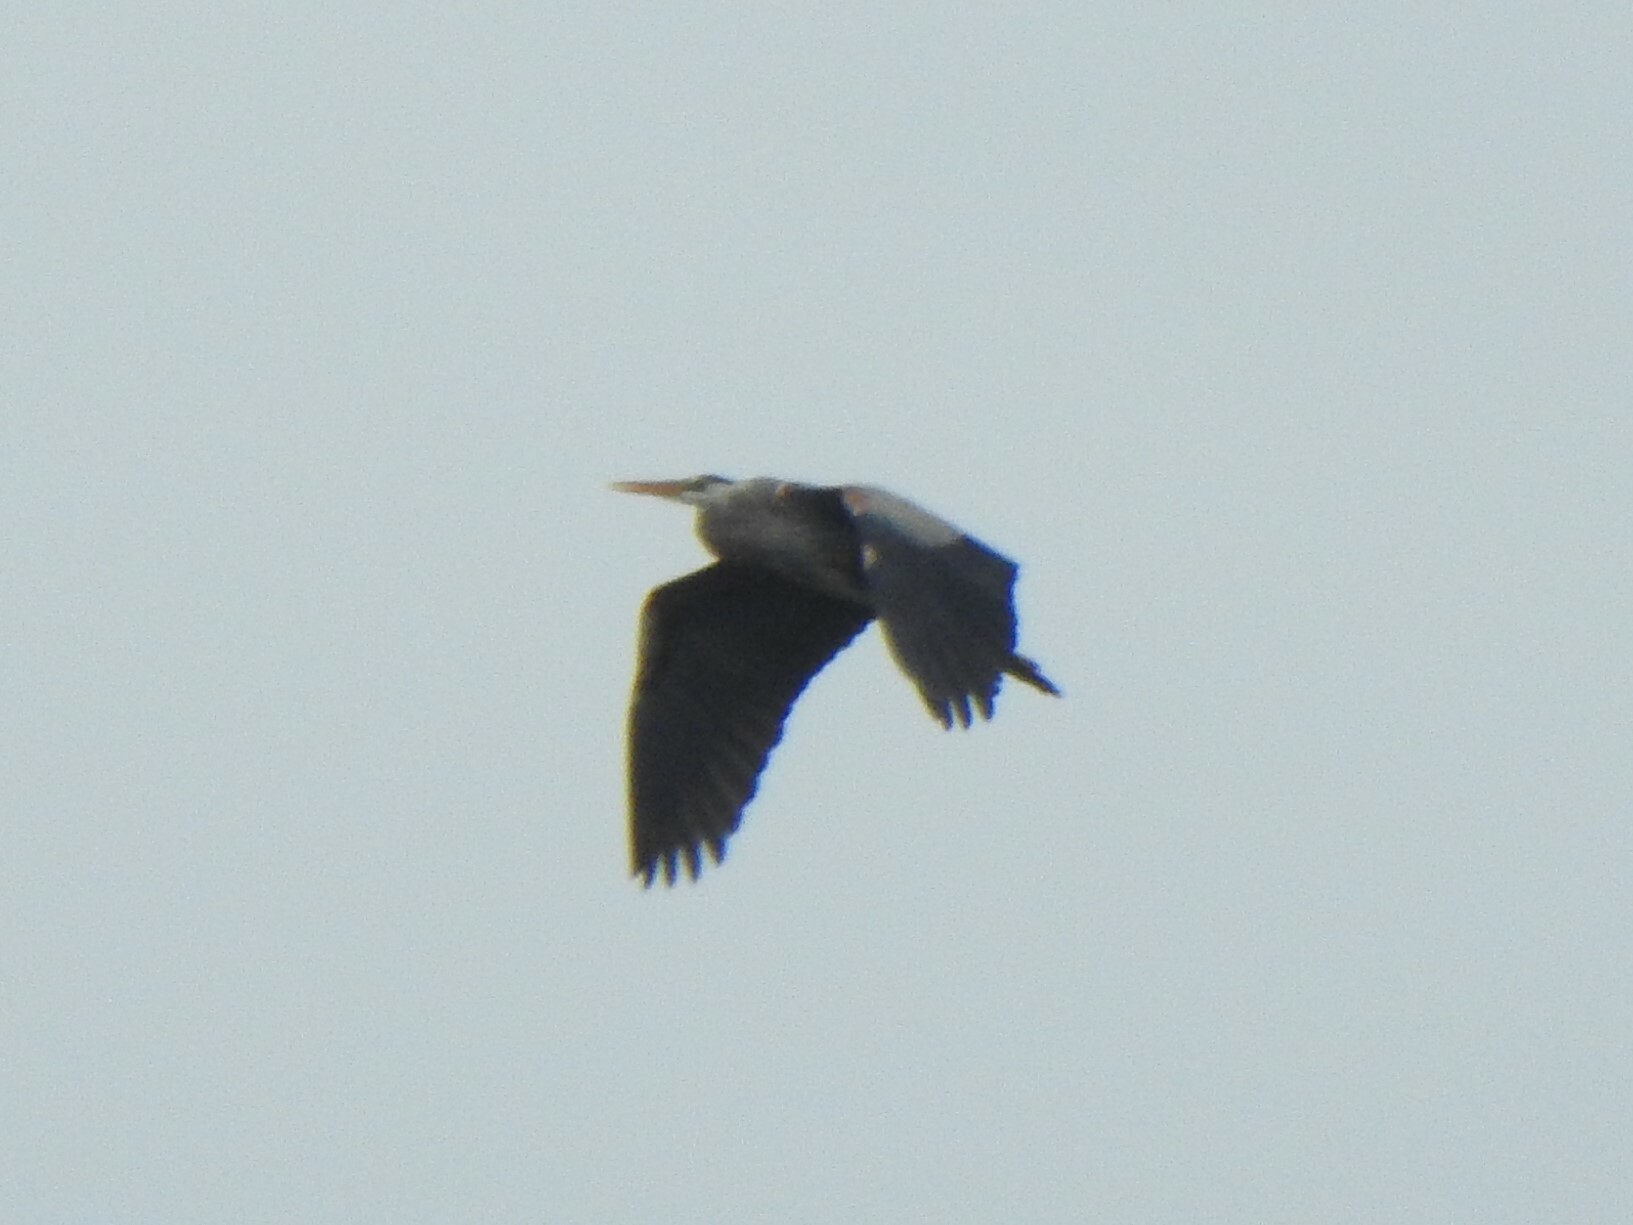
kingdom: Animalia
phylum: Chordata
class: Aves
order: Pelecaniformes
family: Ardeidae
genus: Ardea
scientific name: Ardea herodias
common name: Great blue heron
